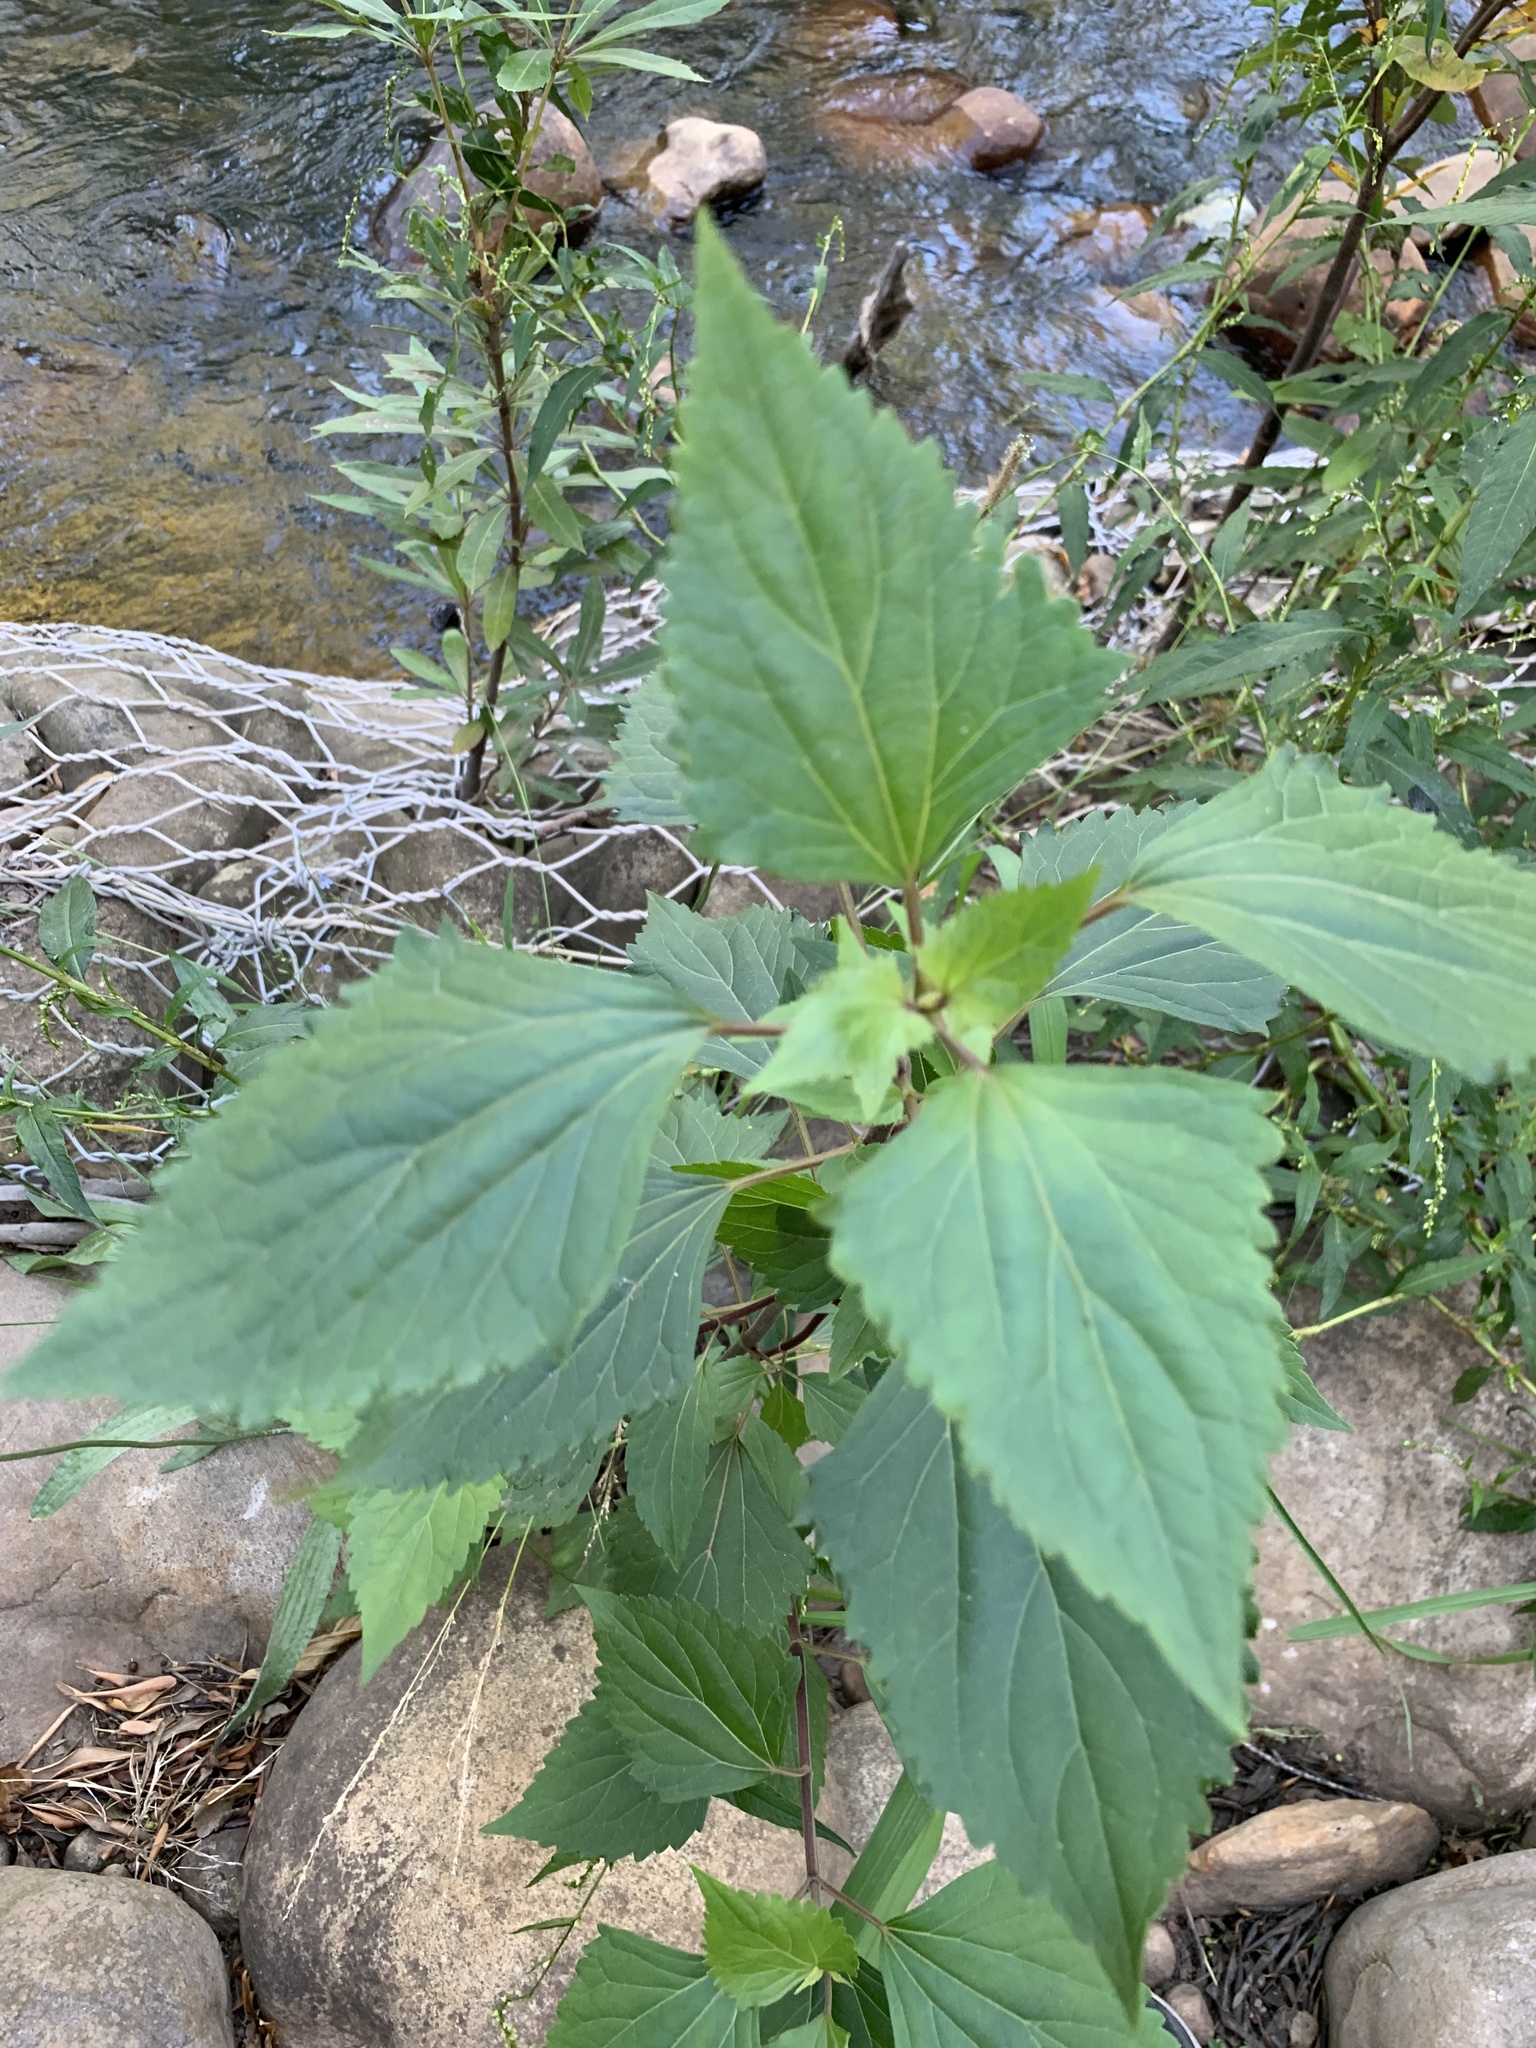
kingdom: Plantae
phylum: Tracheophyta
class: Magnoliopsida
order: Asterales
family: Asteraceae
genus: Ageratina
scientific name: Ageratina adenophora
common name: Sticky snakeroot
